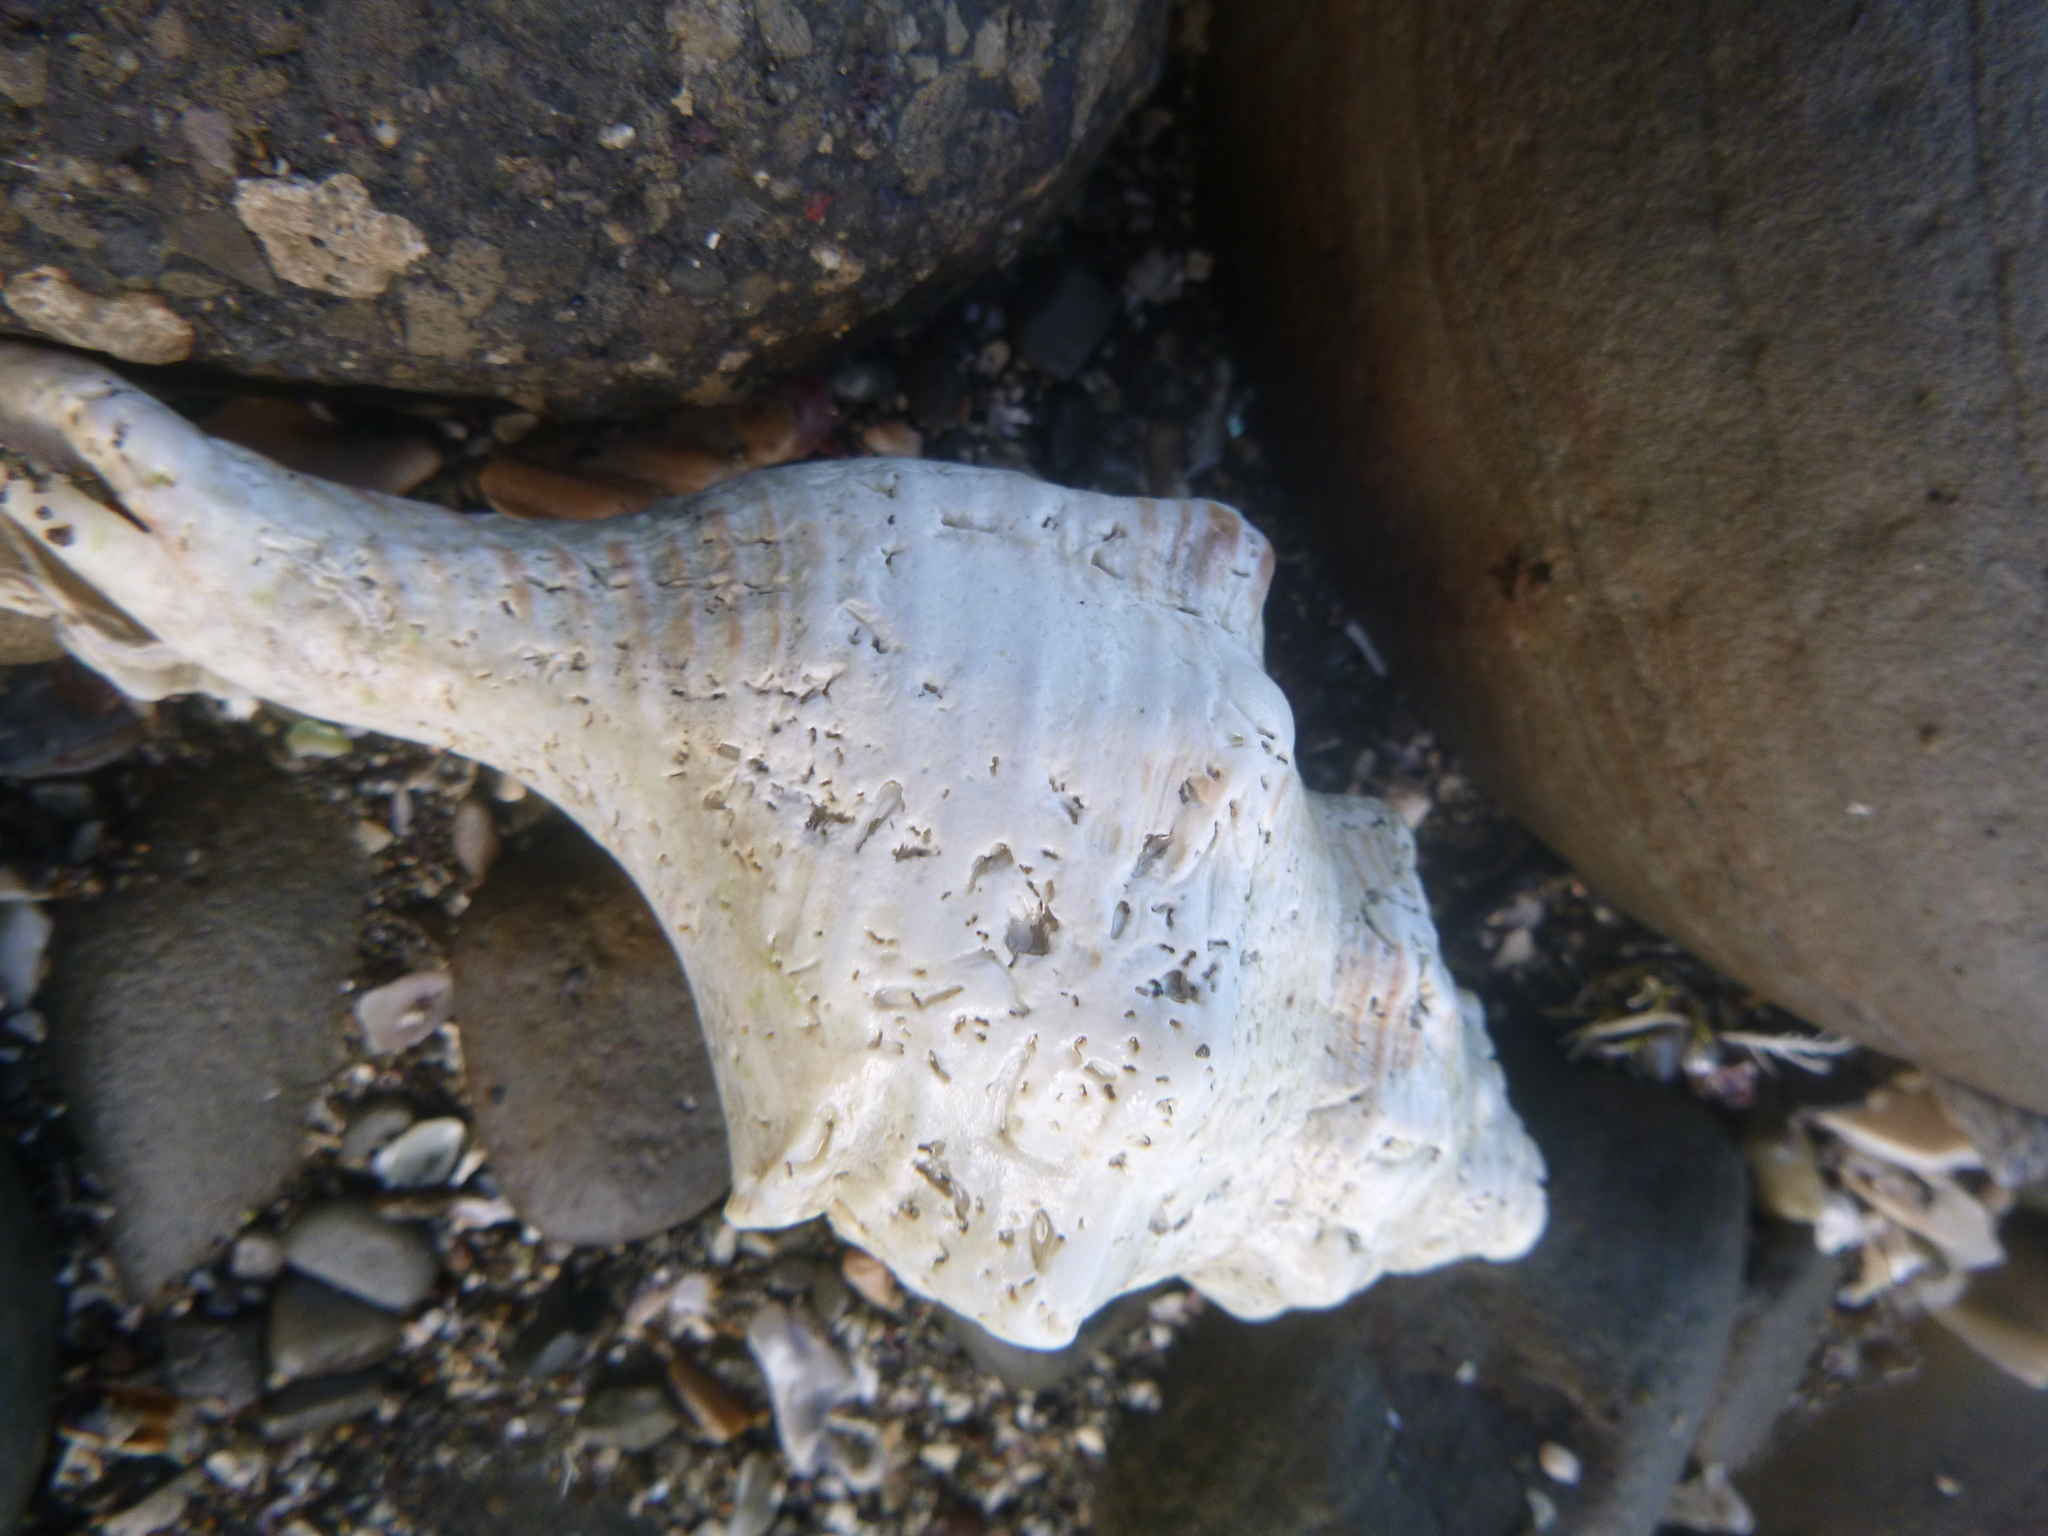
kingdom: Animalia
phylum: Mollusca
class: Gastropoda
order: Neogastropoda
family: Austrosiphonidae
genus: Penion
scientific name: Penion sulcatus
